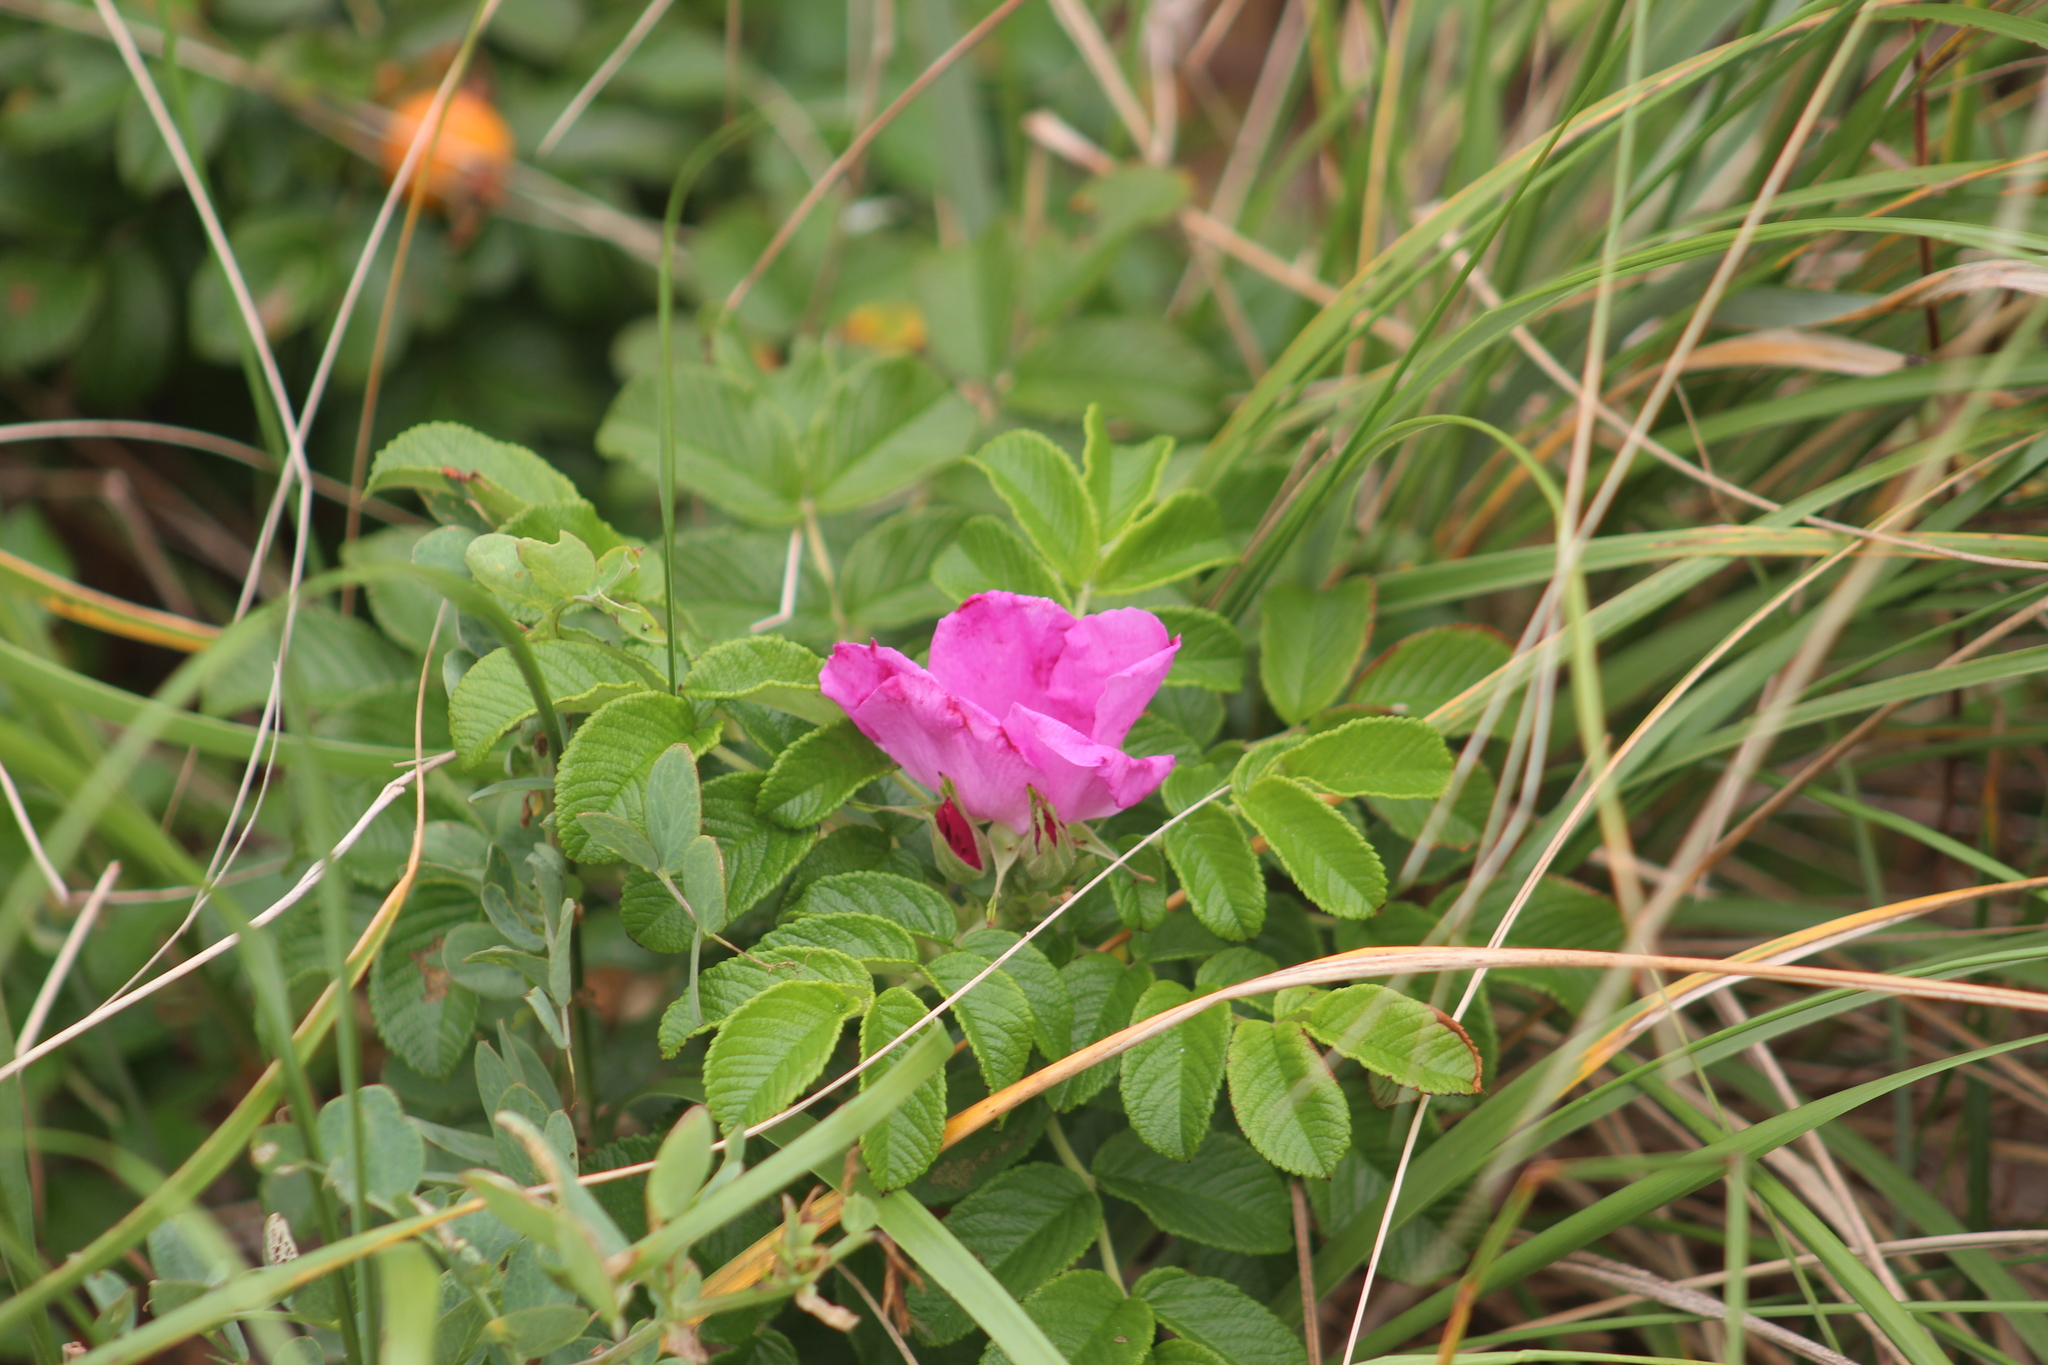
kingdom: Plantae
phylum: Tracheophyta
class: Magnoliopsida
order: Rosales
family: Rosaceae
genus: Rosa
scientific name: Rosa rugosa
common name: Japanese rose
